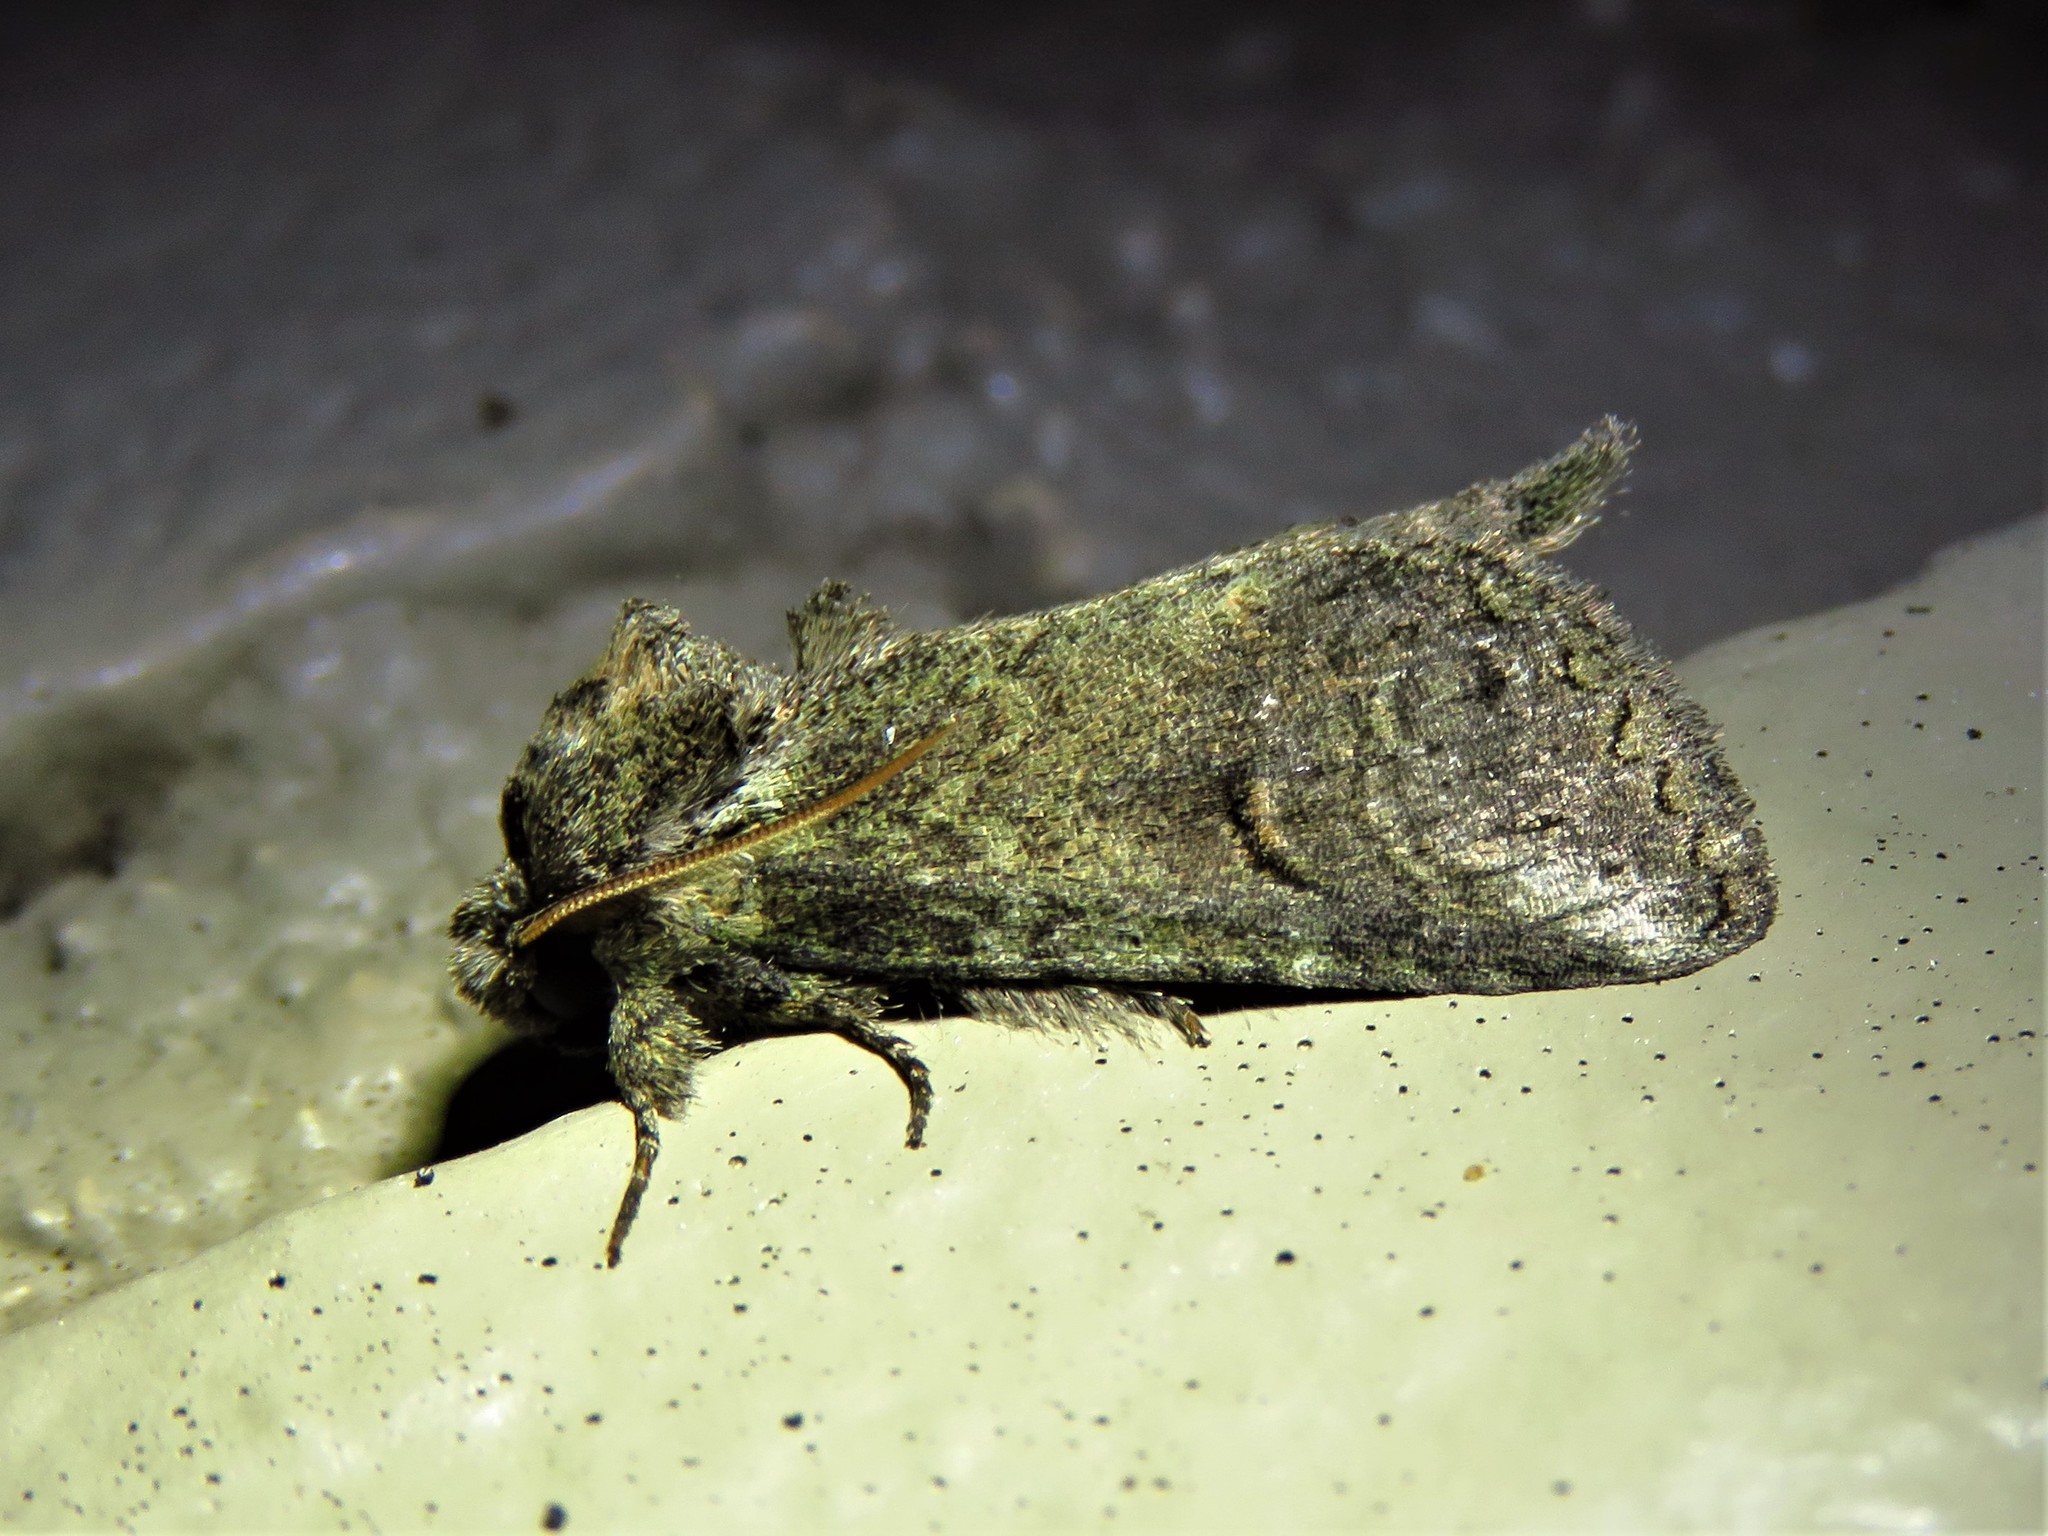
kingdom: Animalia
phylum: Arthropoda
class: Insecta
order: Lepidoptera
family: Notodontidae
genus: Rifargia
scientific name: Rifargia
